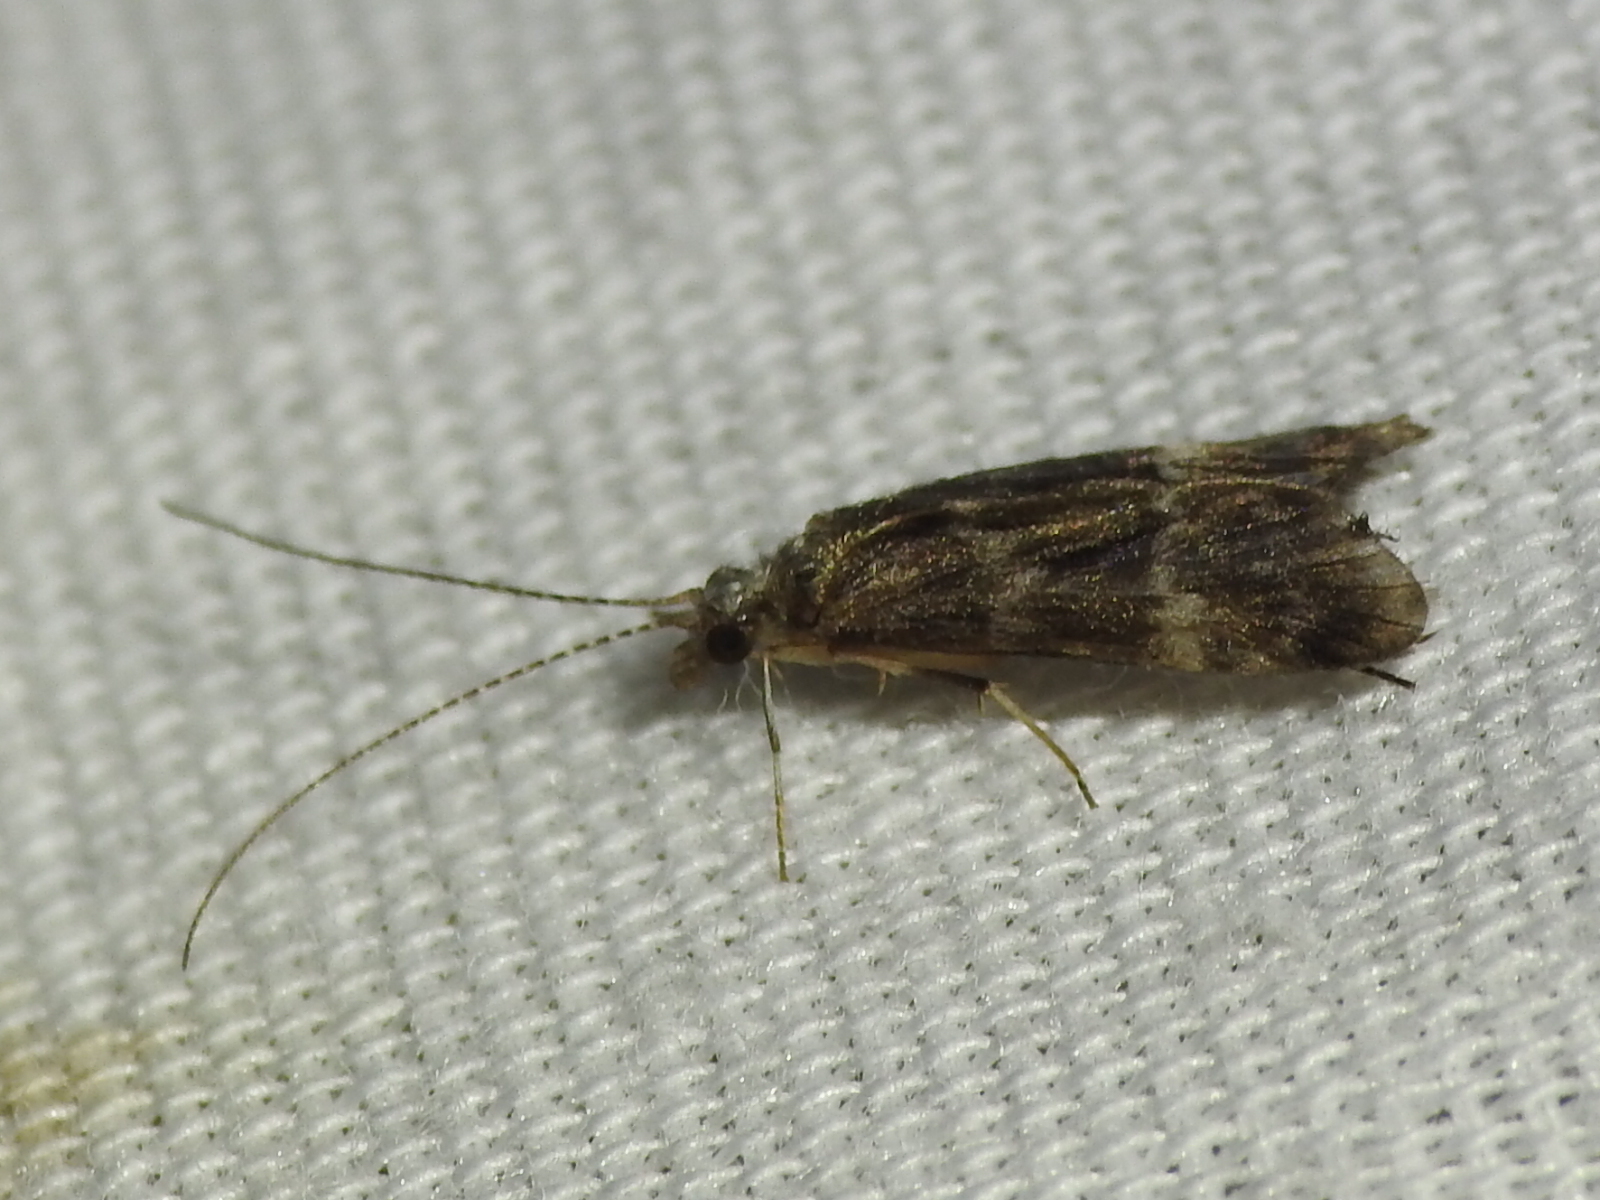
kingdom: Animalia
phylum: Arthropoda
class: Insecta
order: Trichoptera
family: Hydropsychidae
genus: Smicridea
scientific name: Smicridea fasciatella
